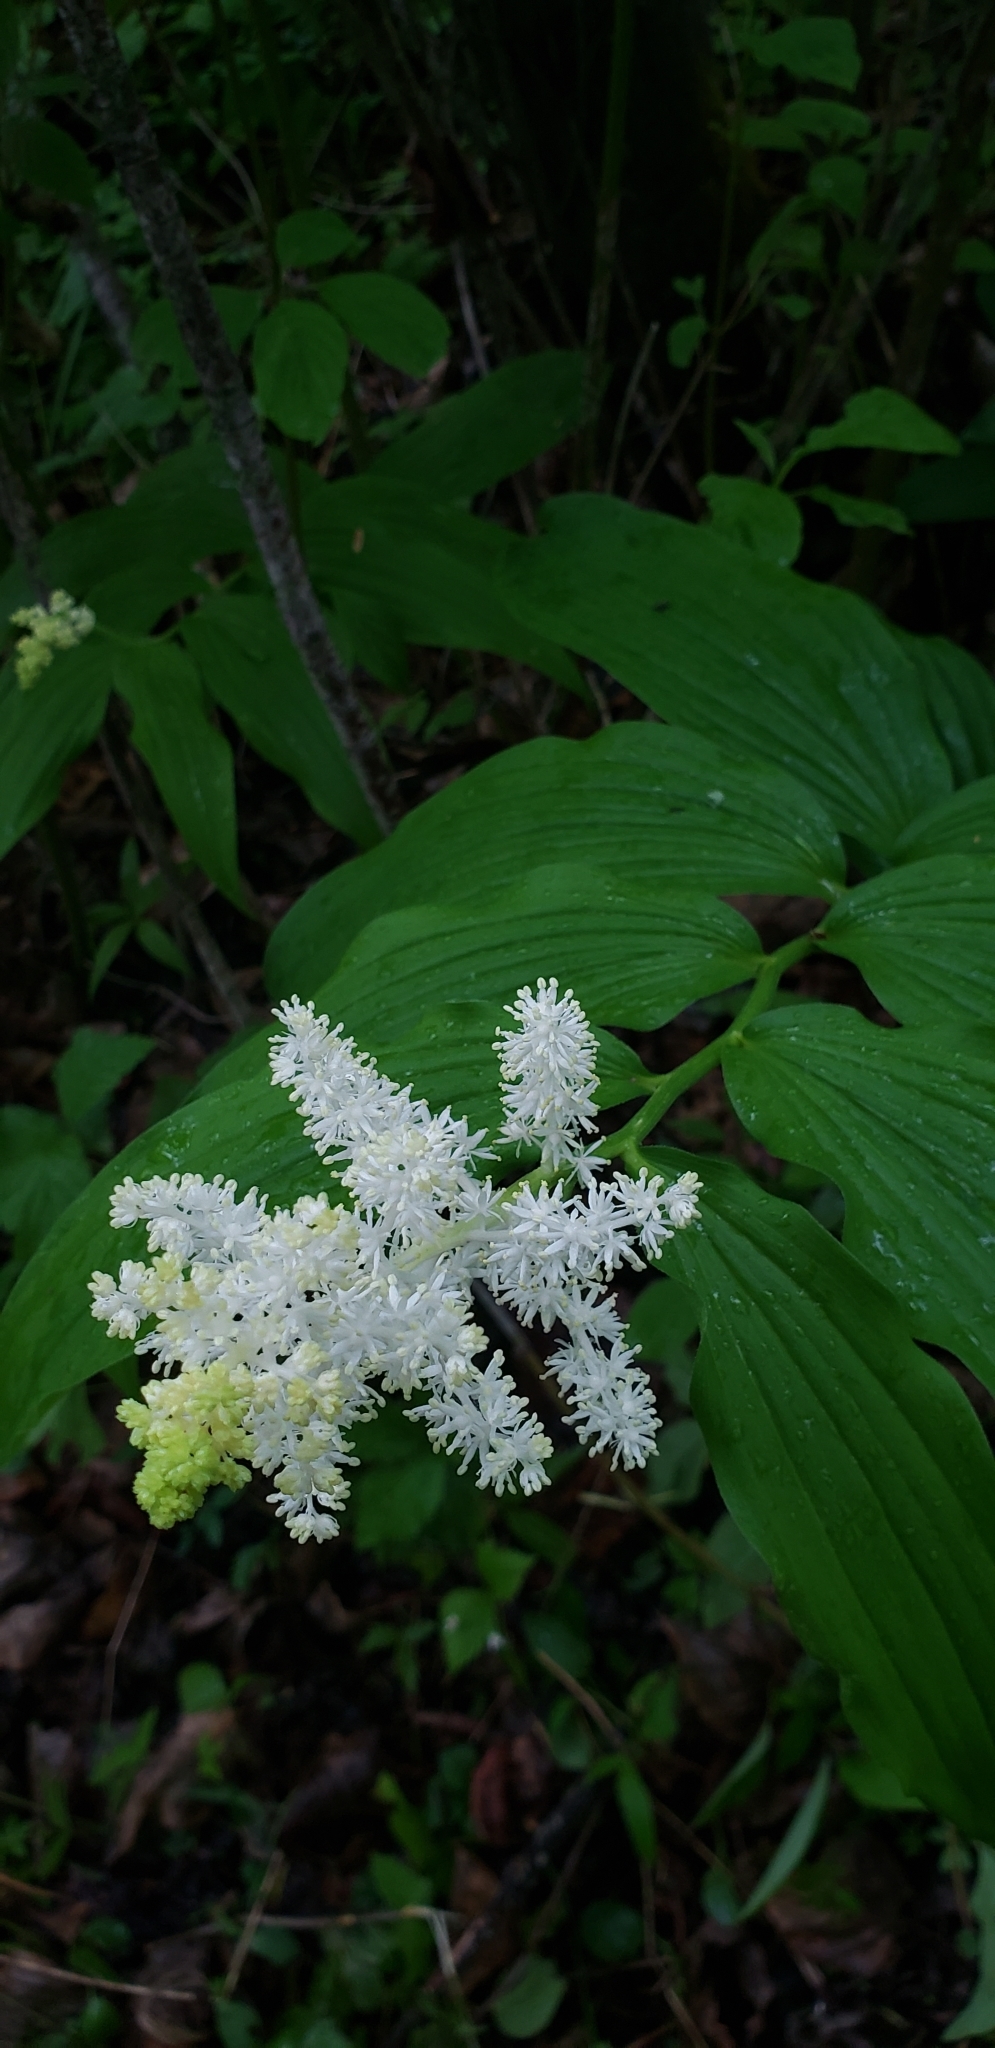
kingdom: Plantae
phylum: Tracheophyta
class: Liliopsida
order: Asparagales
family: Asparagaceae
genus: Maianthemum
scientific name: Maianthemum racemosum
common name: False spikenard
